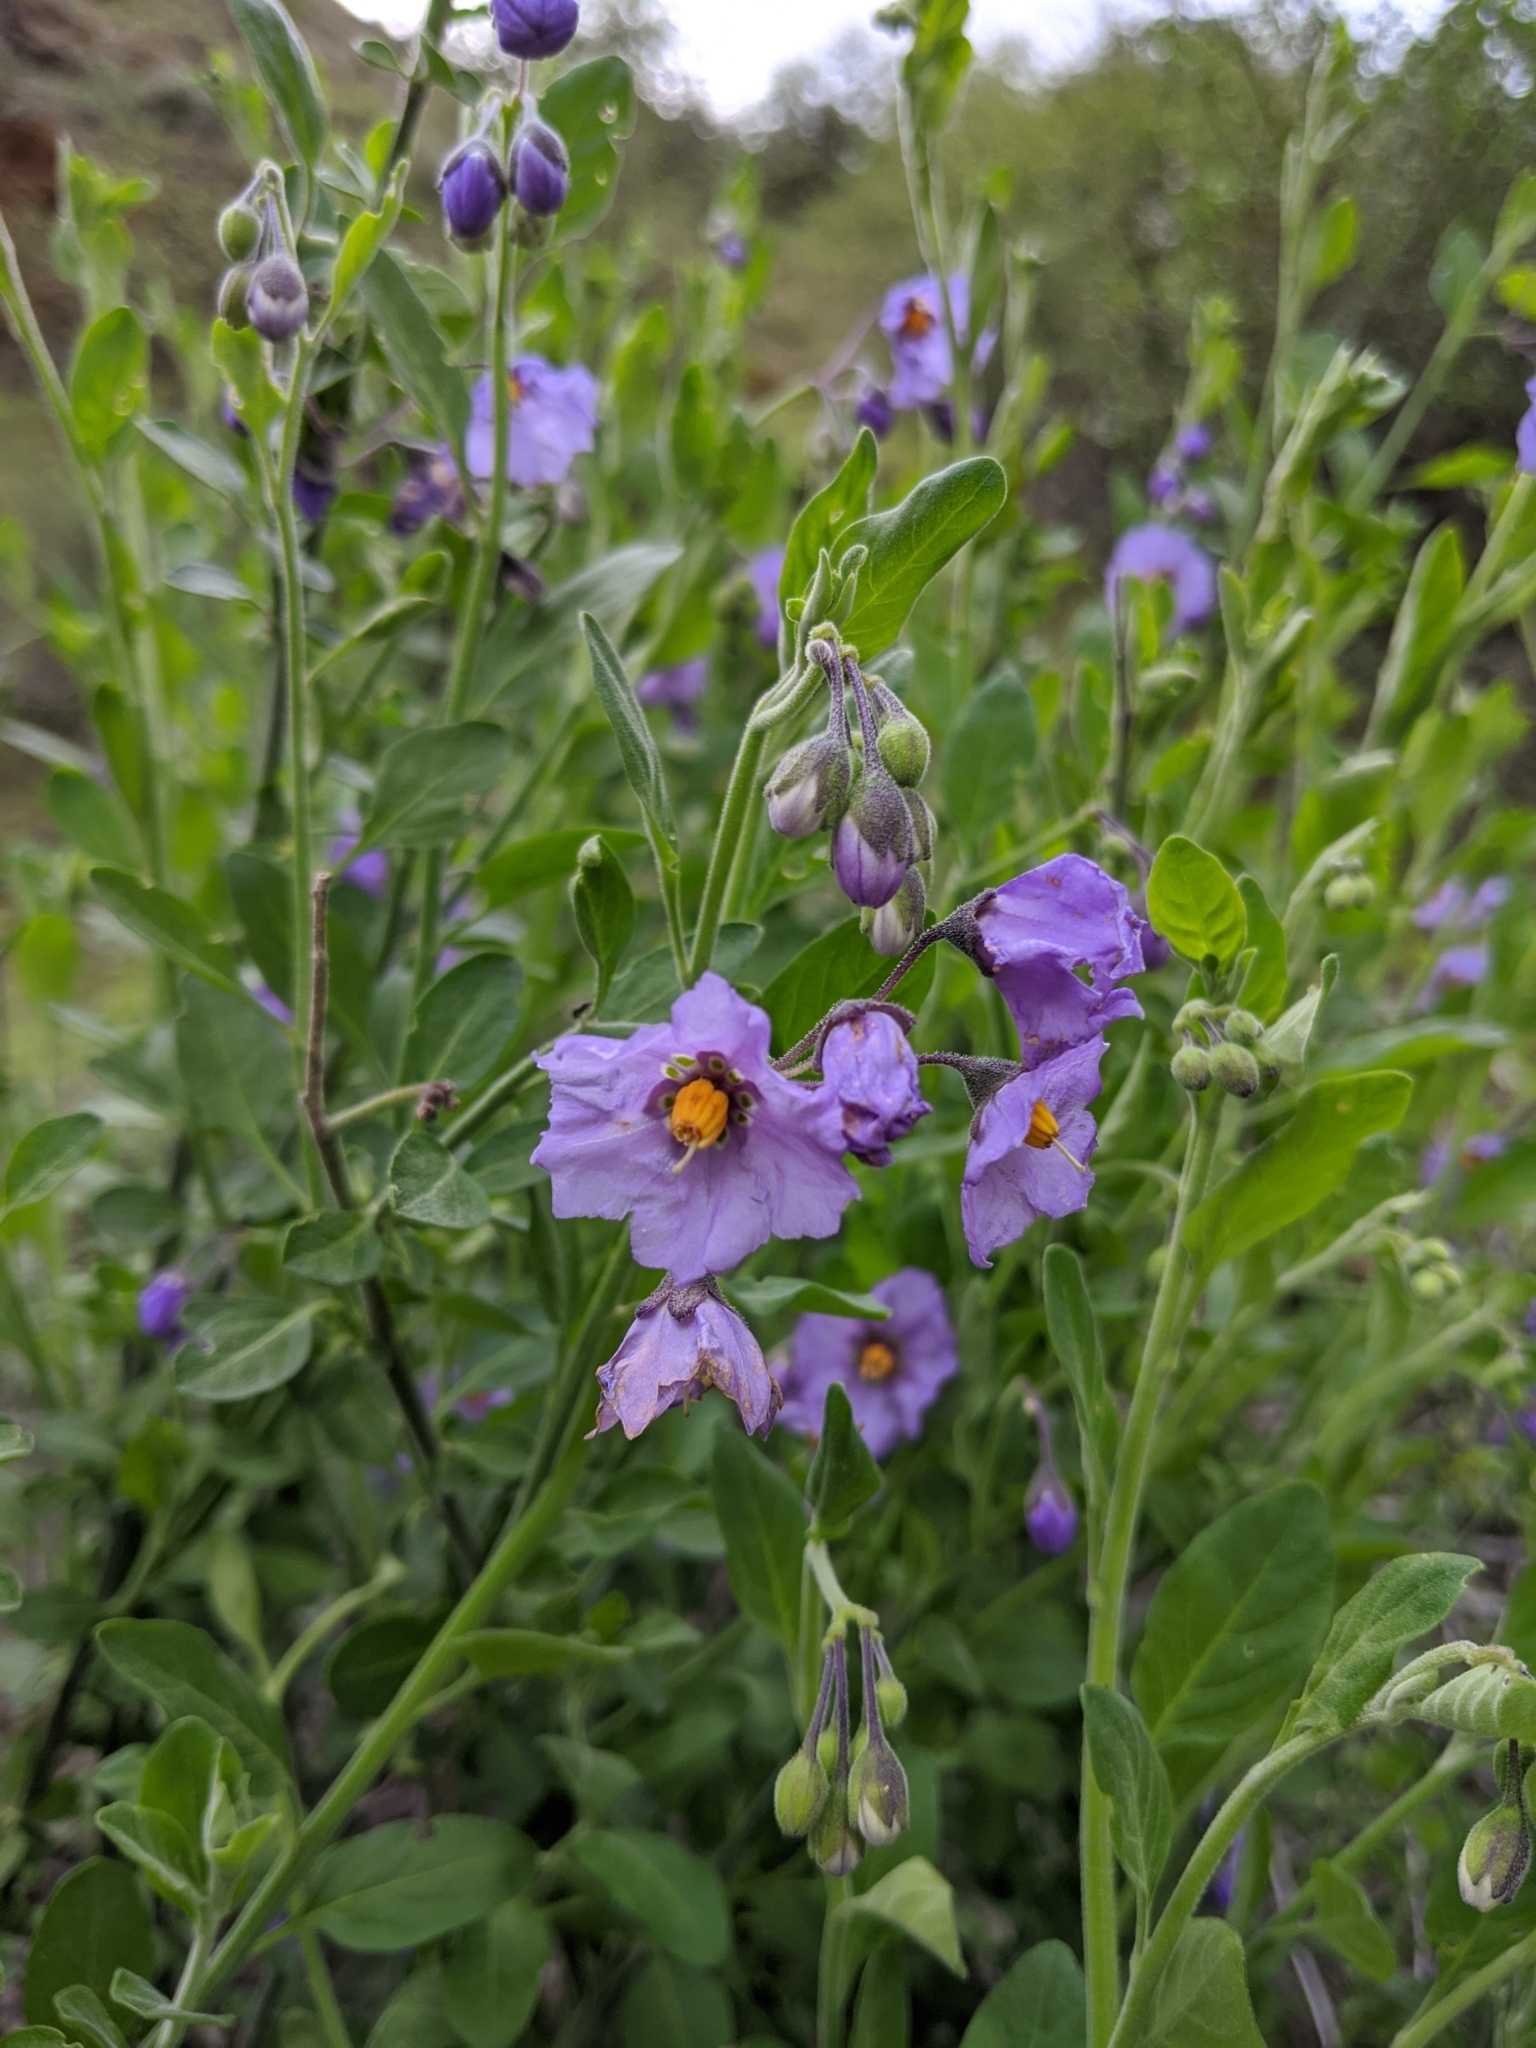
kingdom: Plantae
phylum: Tracheophyta
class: Magnoliopsida
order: Solanales
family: Solanaceae
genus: Solanum
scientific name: Solanum umbelliferum
